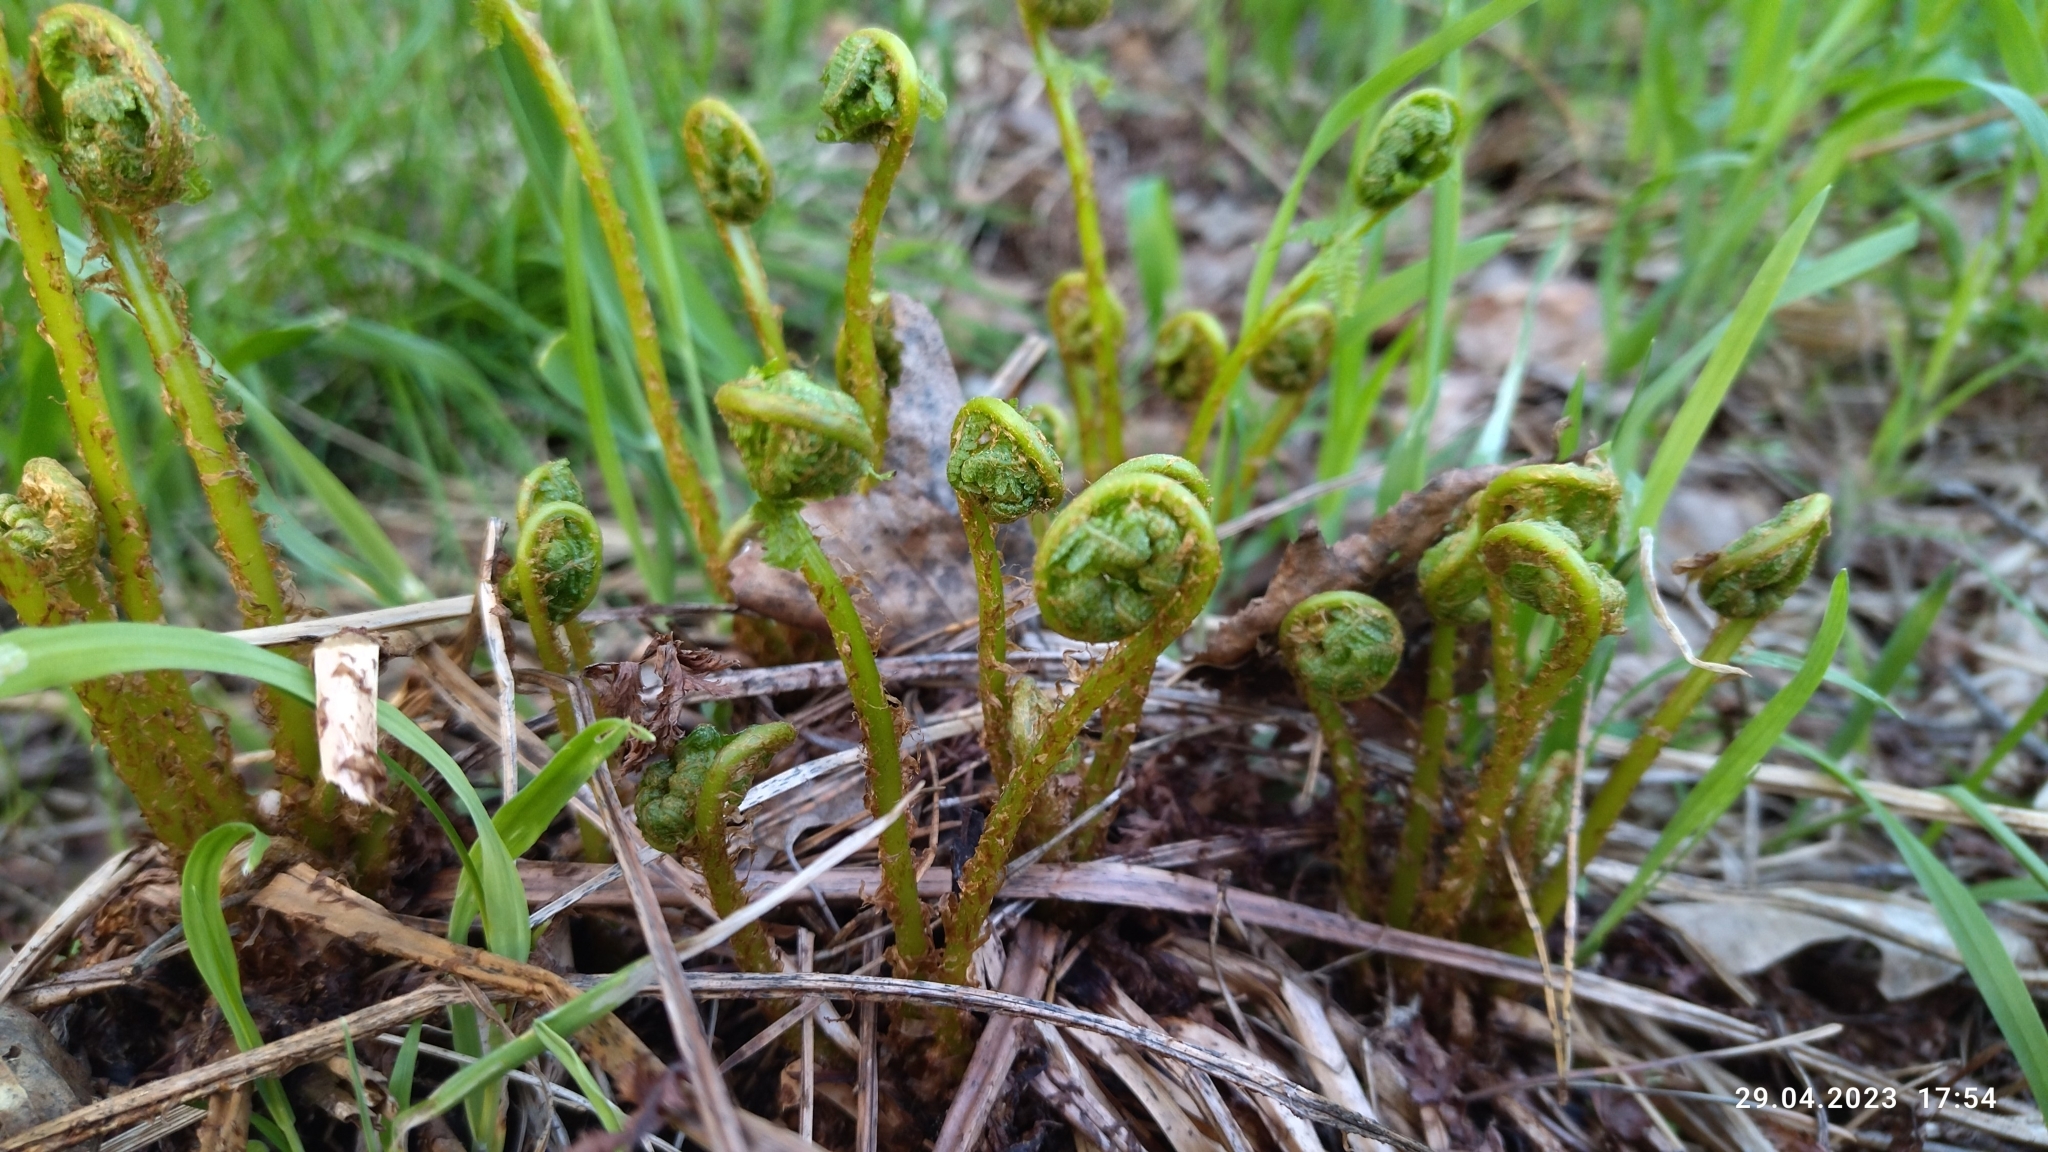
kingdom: Plantae
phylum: Tracheophyta
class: Polypodiopsida
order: Polypodiales
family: Dryopteridaceae
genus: Dryopteris
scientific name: Dryopteris filix-mas
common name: Male fern
